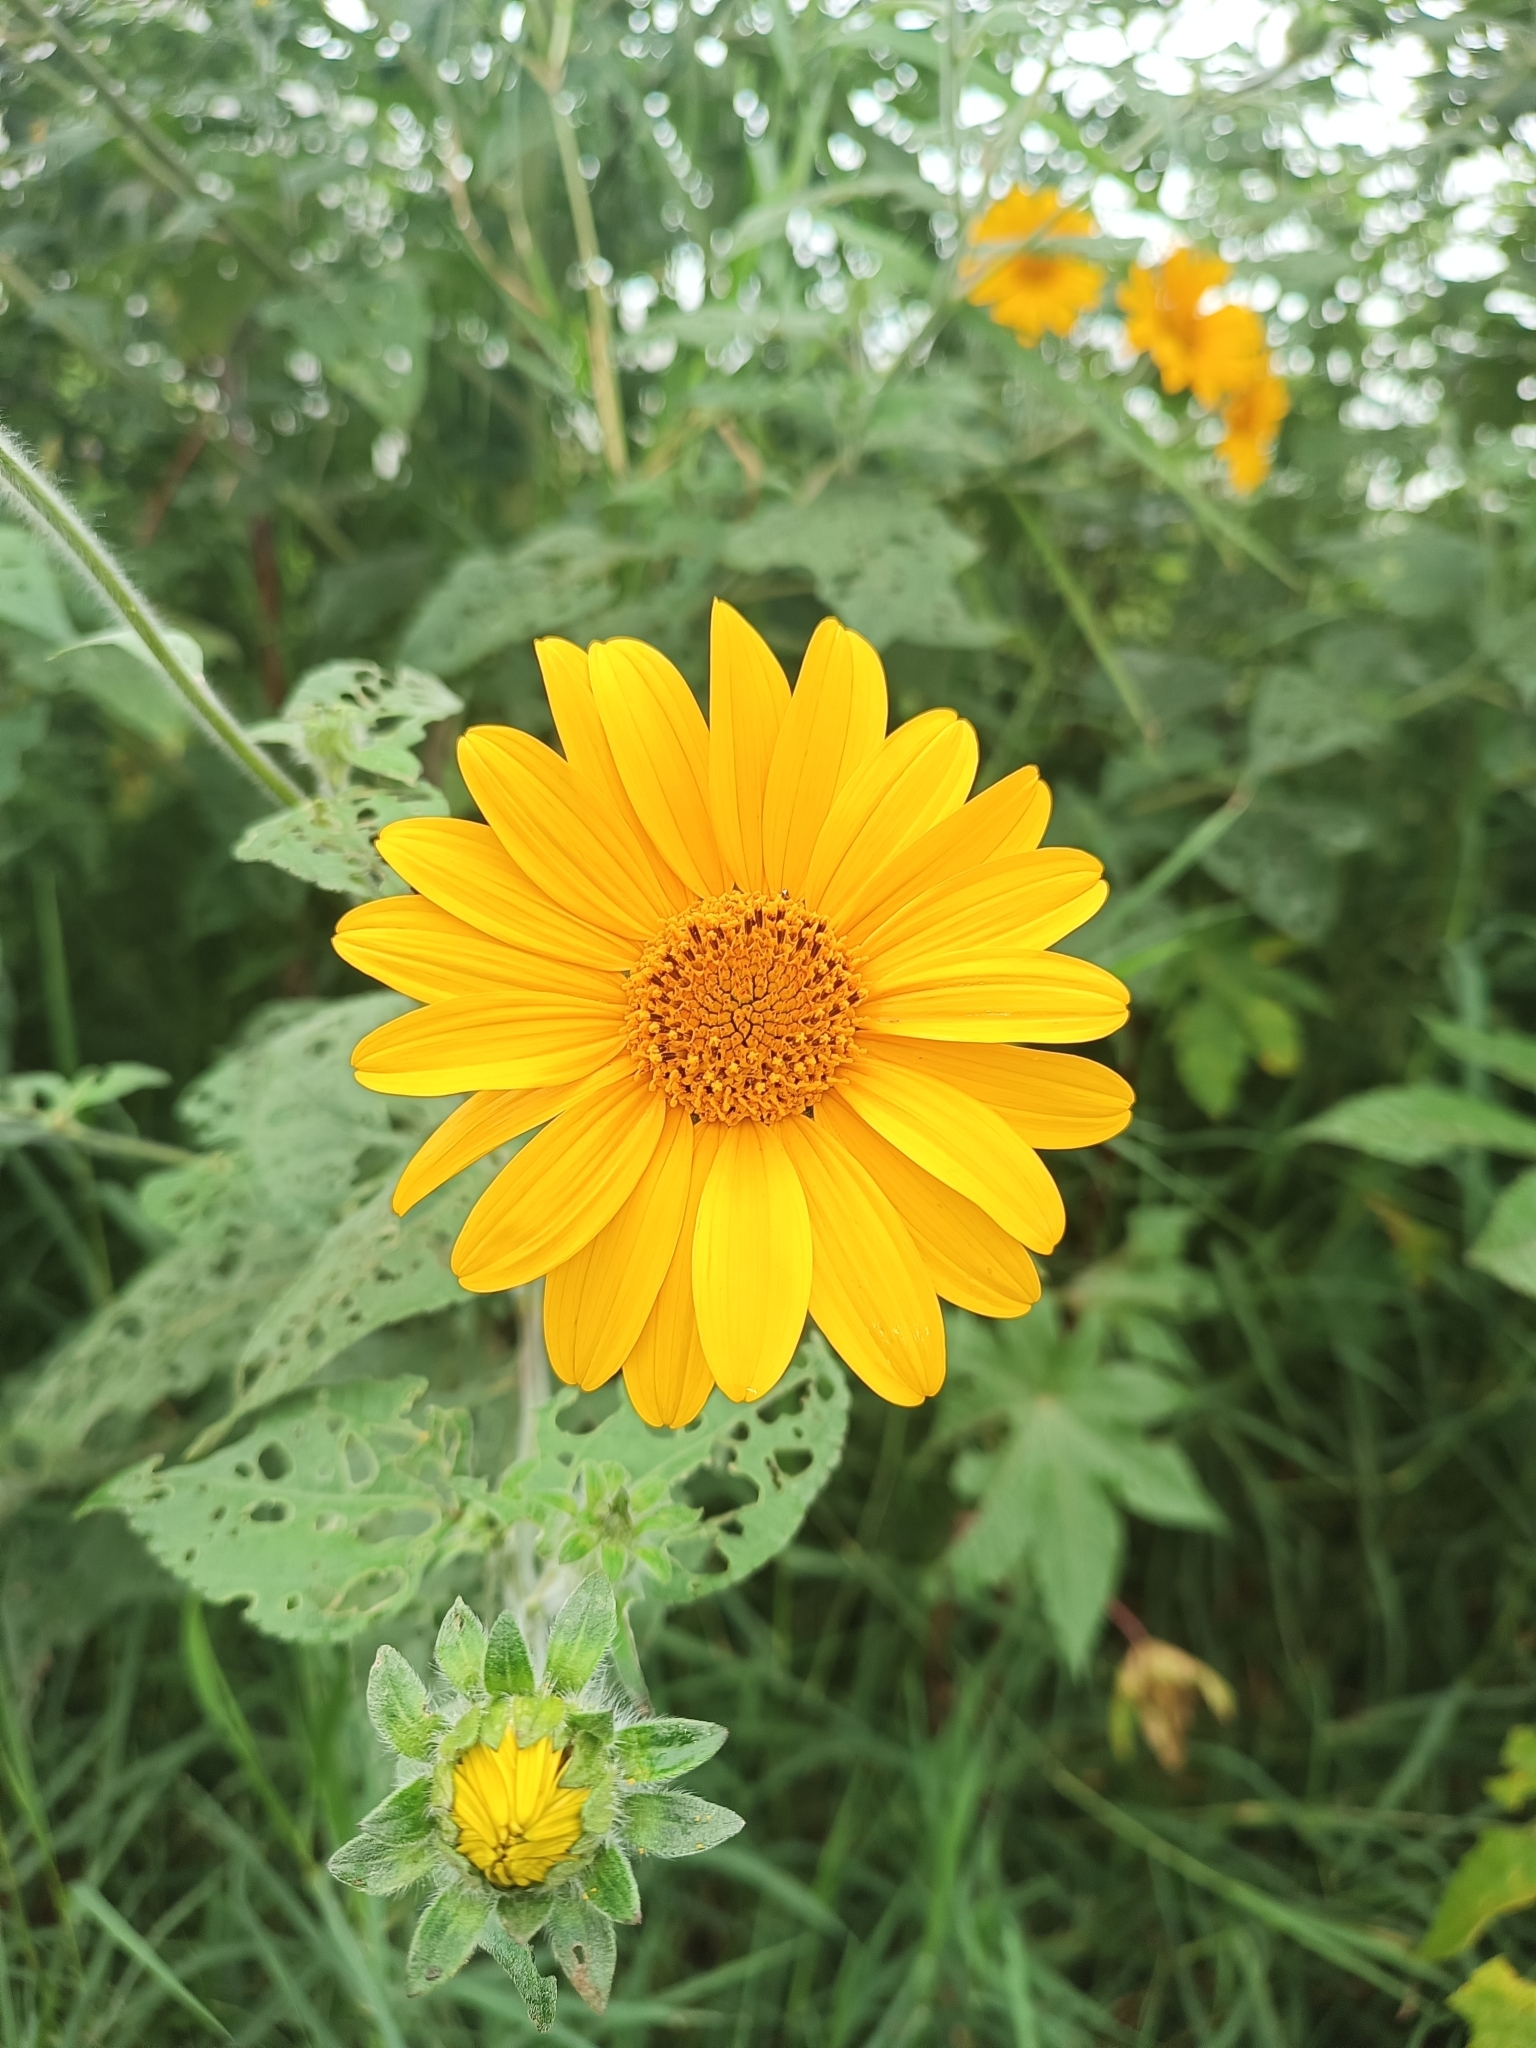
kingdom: Plantae
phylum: Tracheophyta
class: Magnoliopsida
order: Asterales
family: Asteraceae
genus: Tithonia
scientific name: Tithonia tubaeformis
